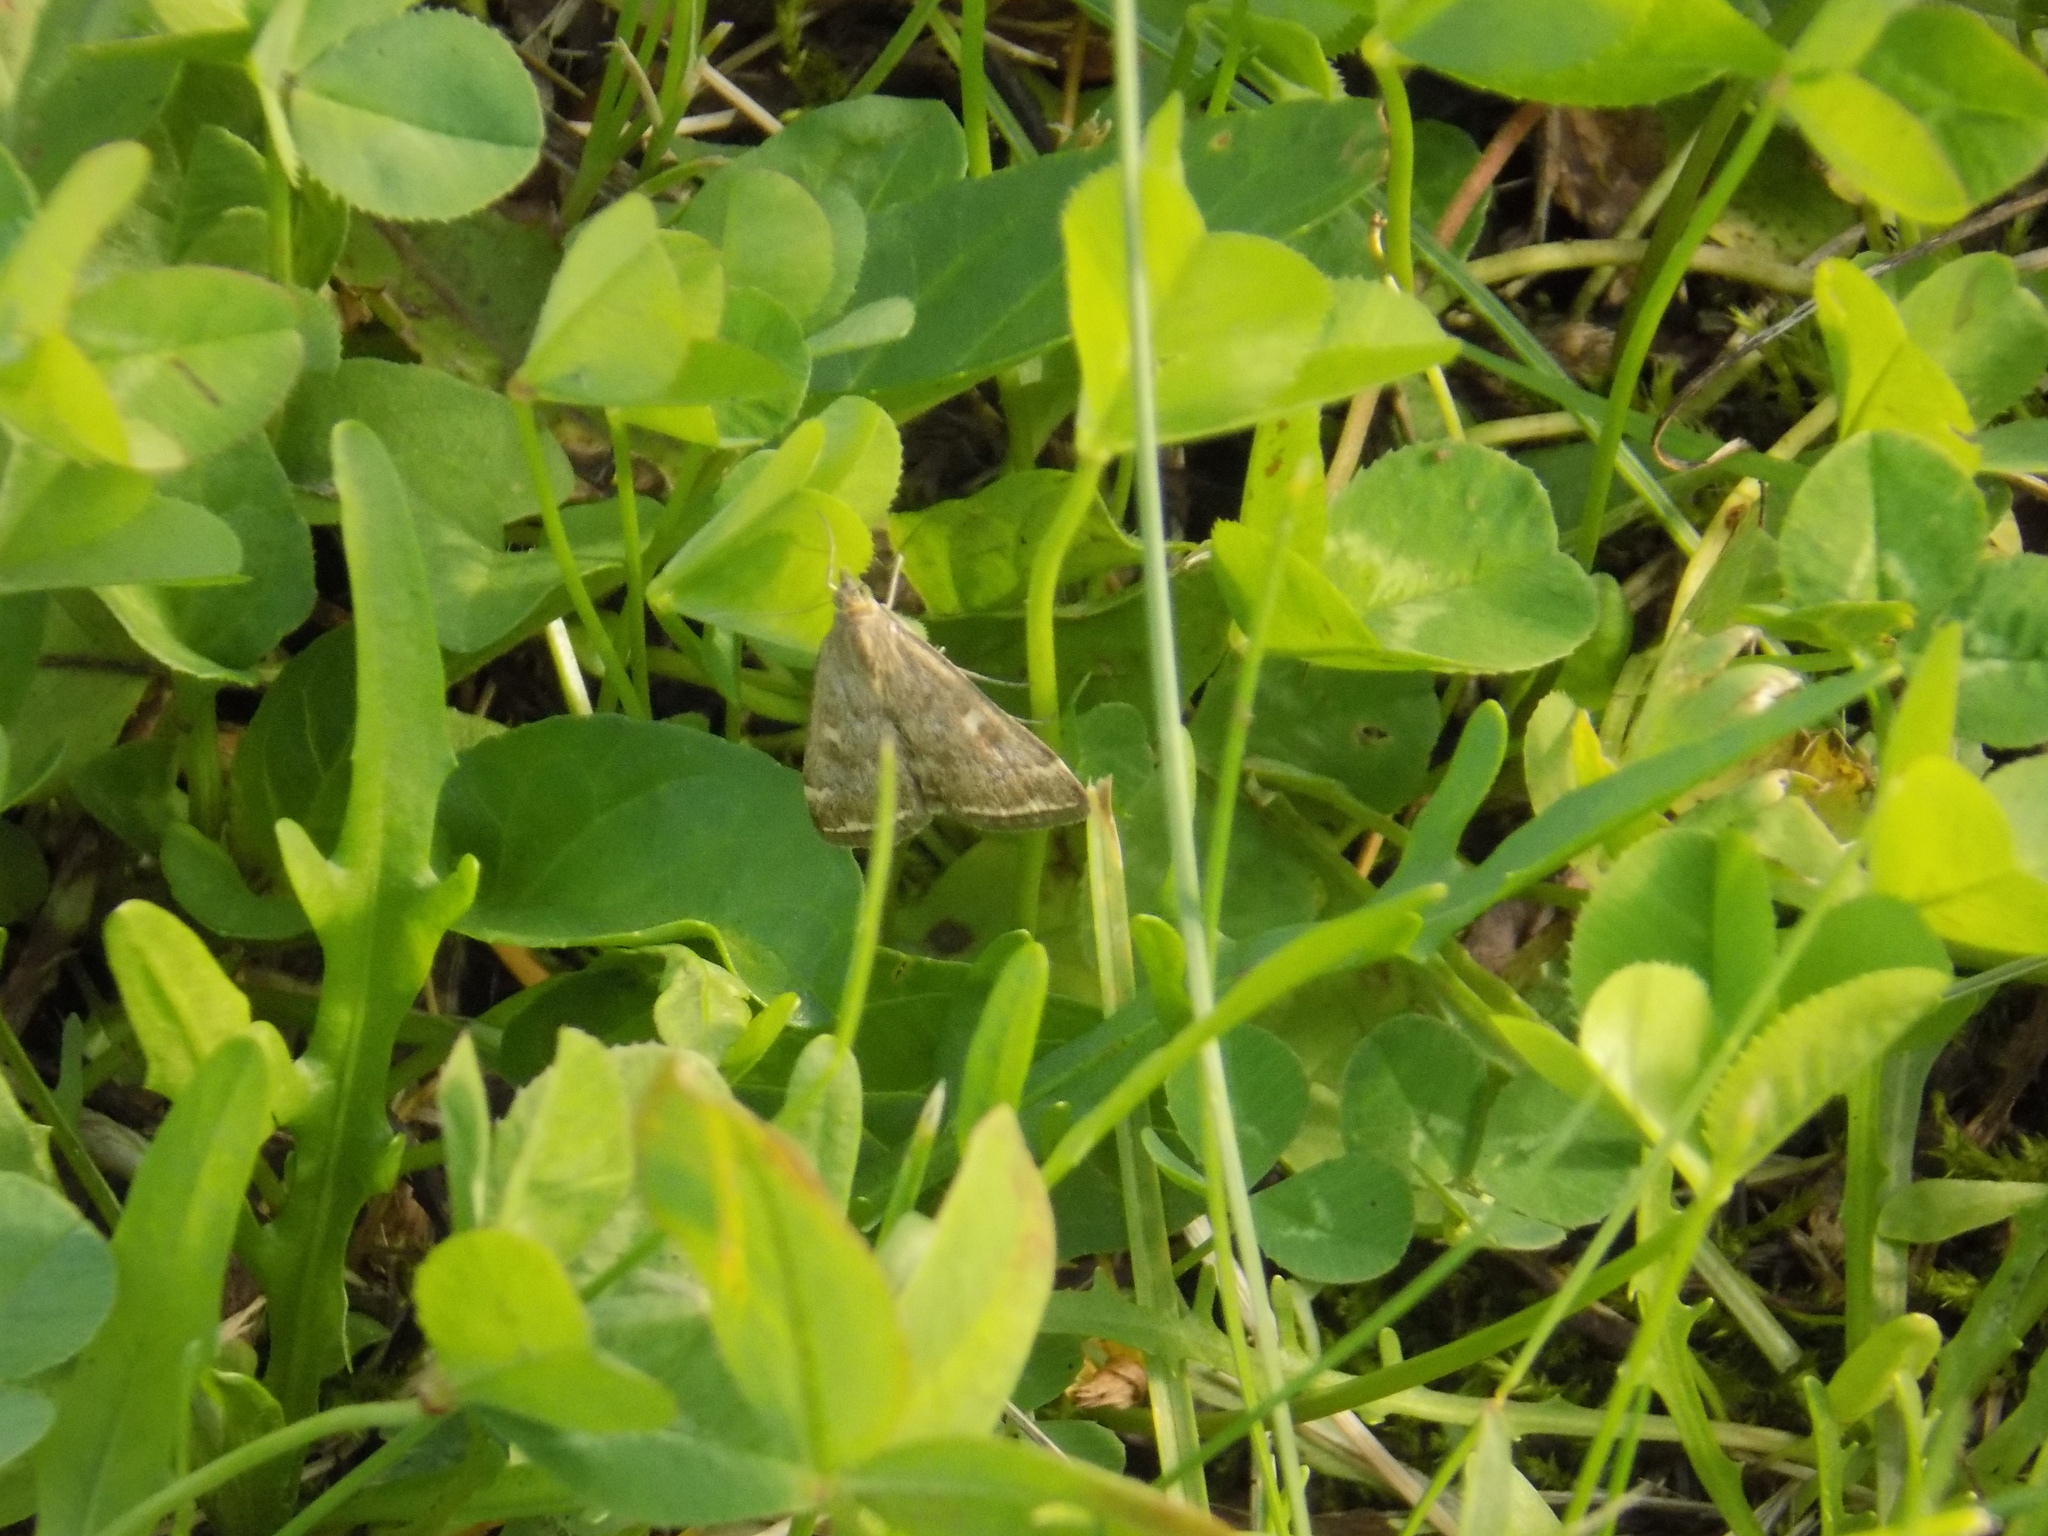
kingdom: Animalia
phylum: Arthropoda
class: Insecta
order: Lepidoptera
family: Crambidae
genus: Loxostege
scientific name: Loxostege sticticalis
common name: Crambid moth
